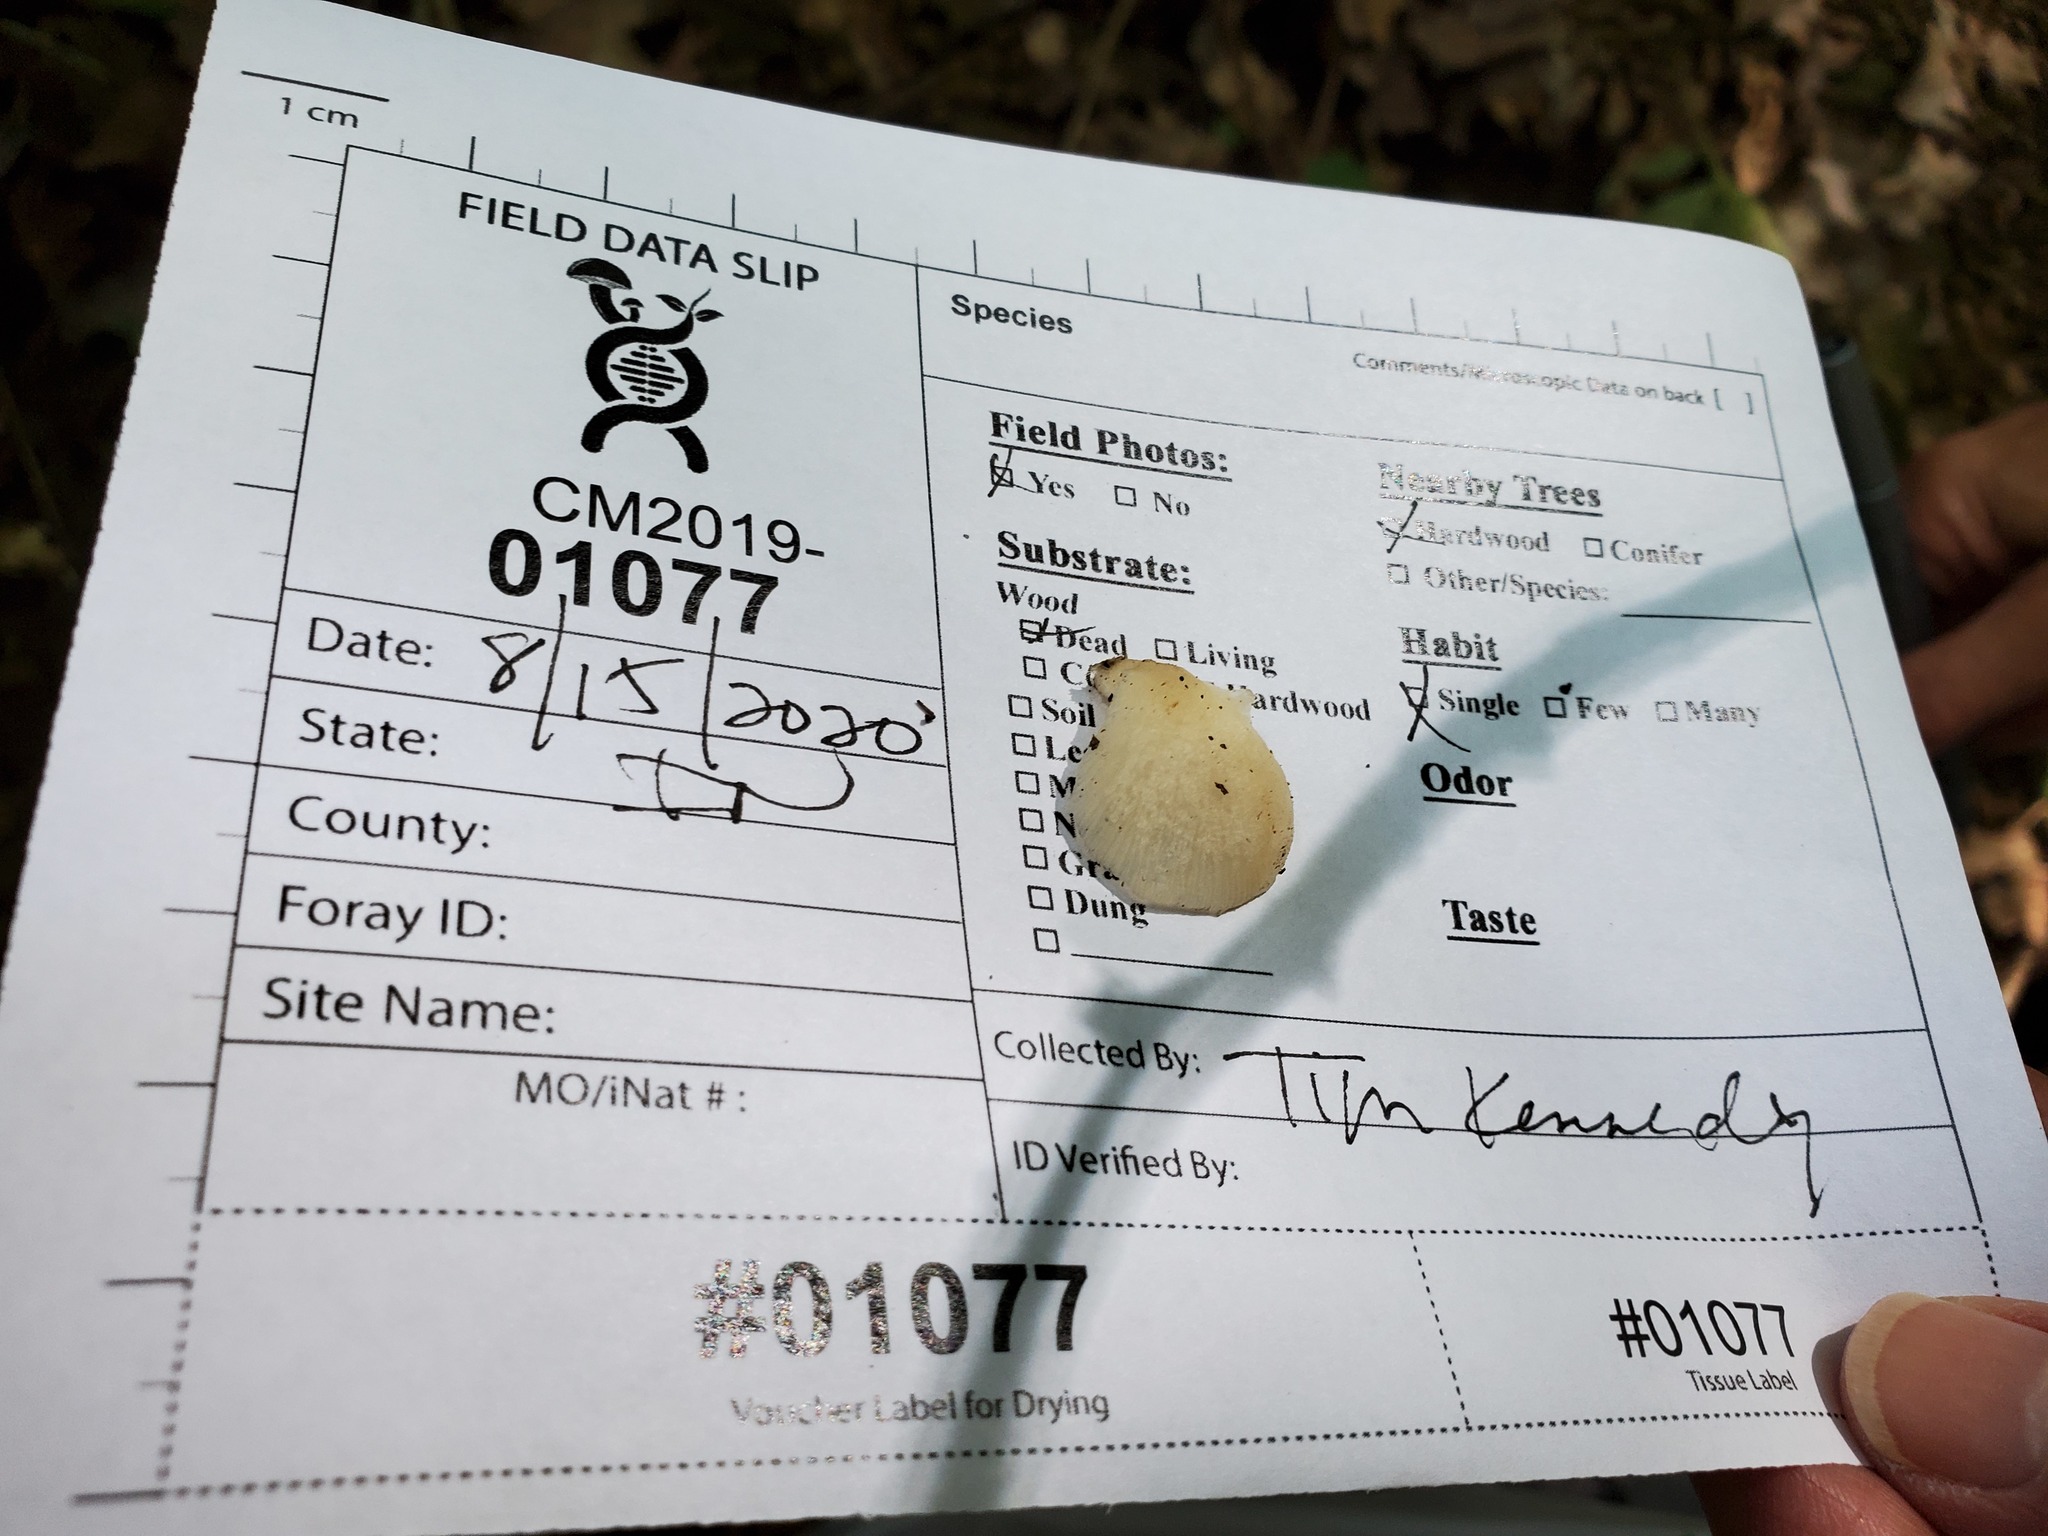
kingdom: Fungi
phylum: Basidiomycota
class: Agaricomycetes
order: Agaricales
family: Pleurotaceae
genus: Pleurotus
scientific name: Pleurotus pulmonarius
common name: Pale oyster
